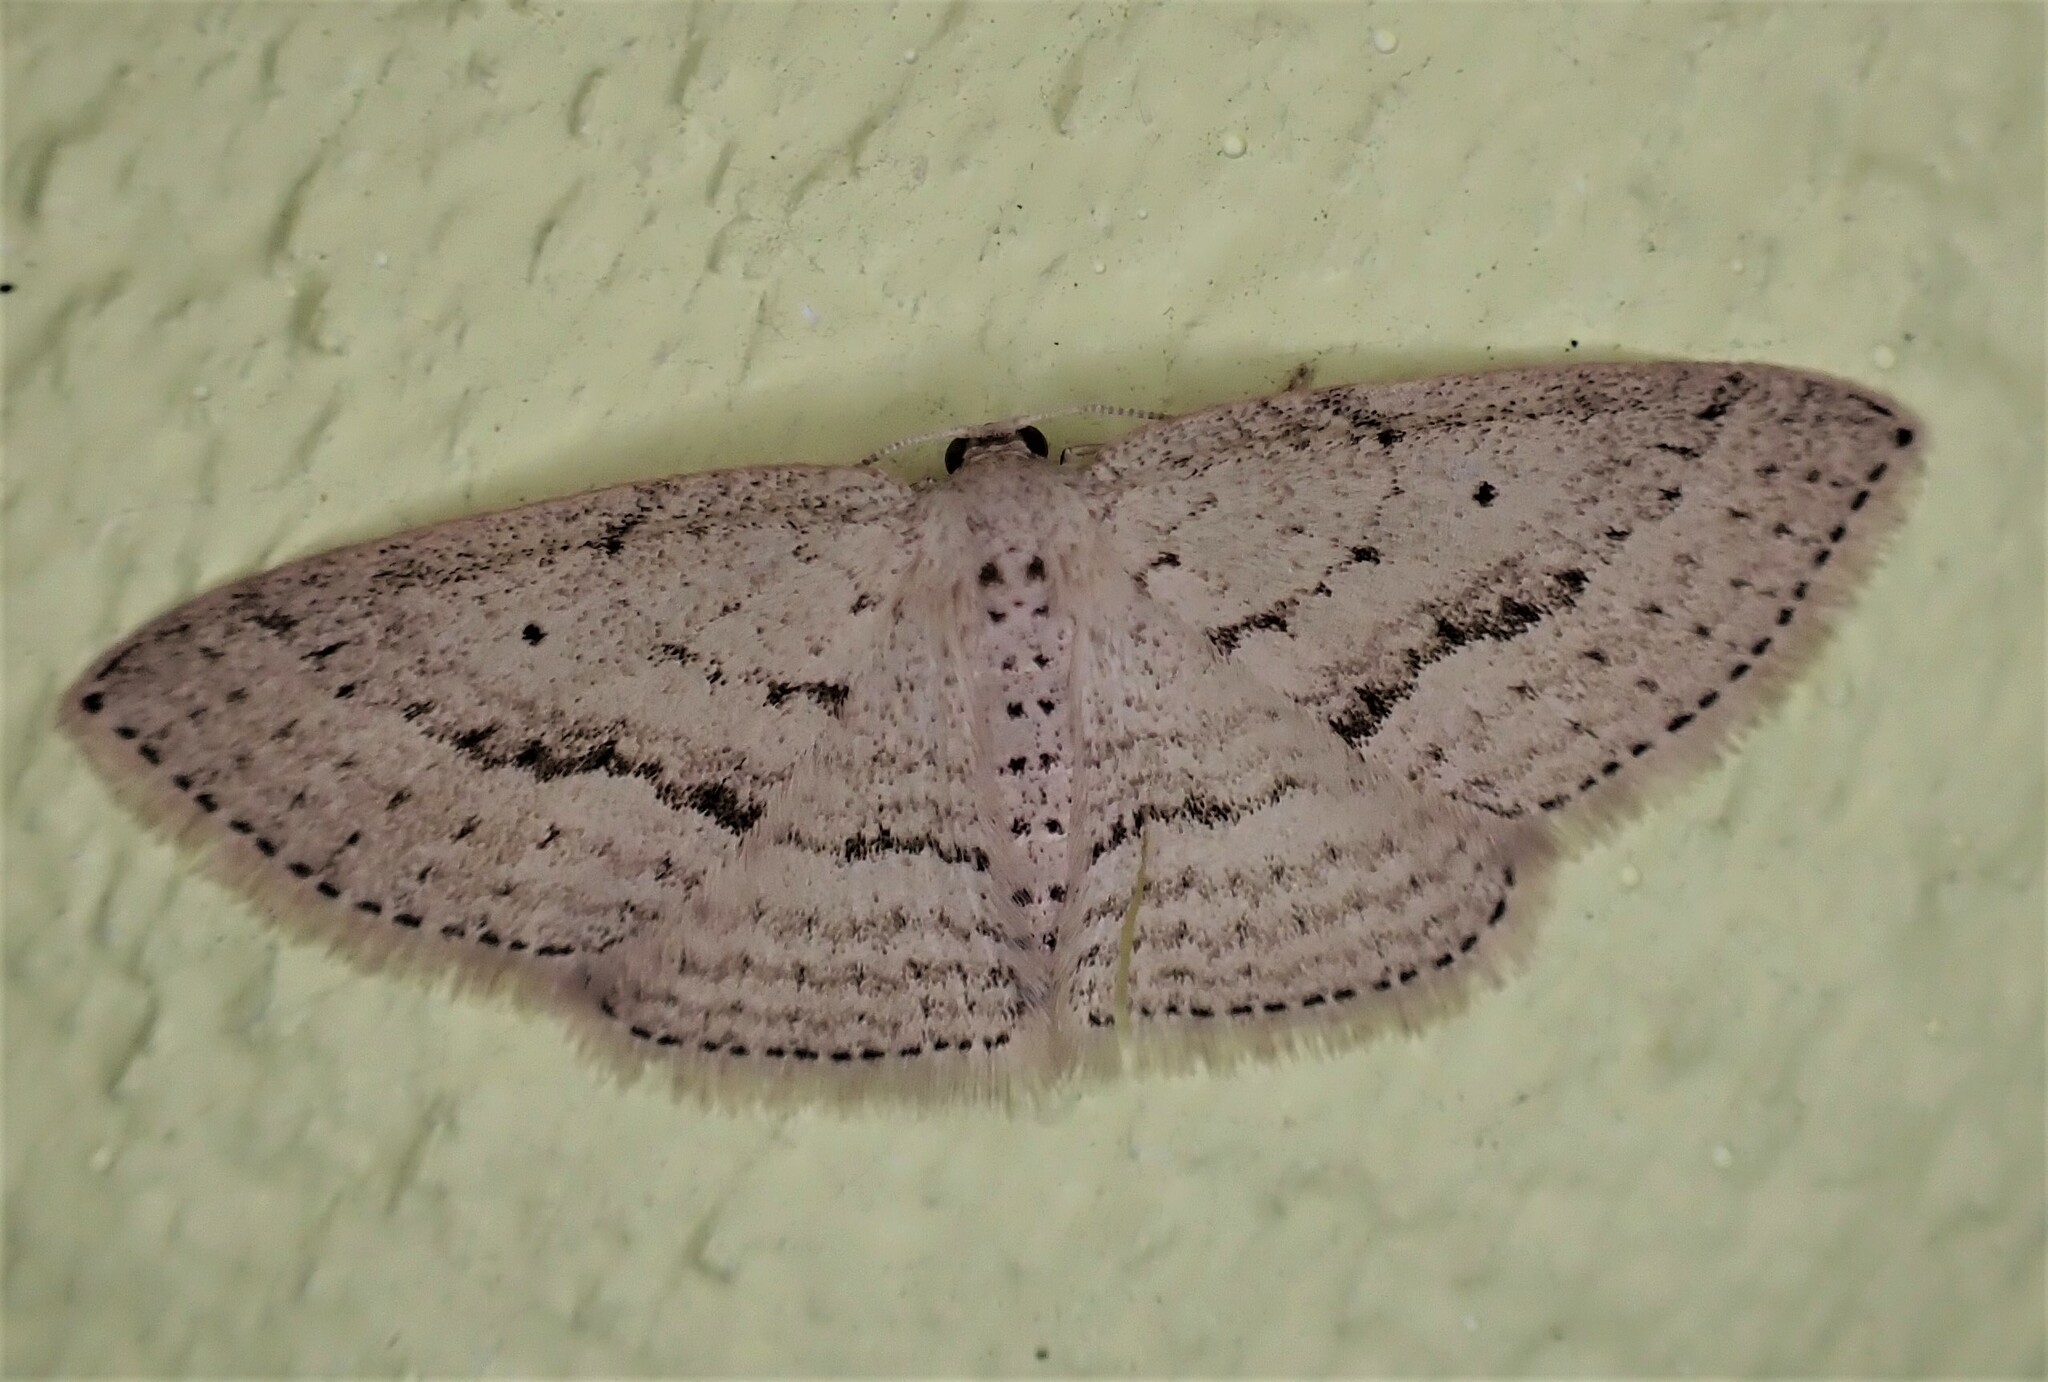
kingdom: Animalia
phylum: Arthropoda
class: Insecta
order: Lepidoptera
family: Geometridae
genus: Poecilasthena
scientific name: Poecilasthena schistaria
